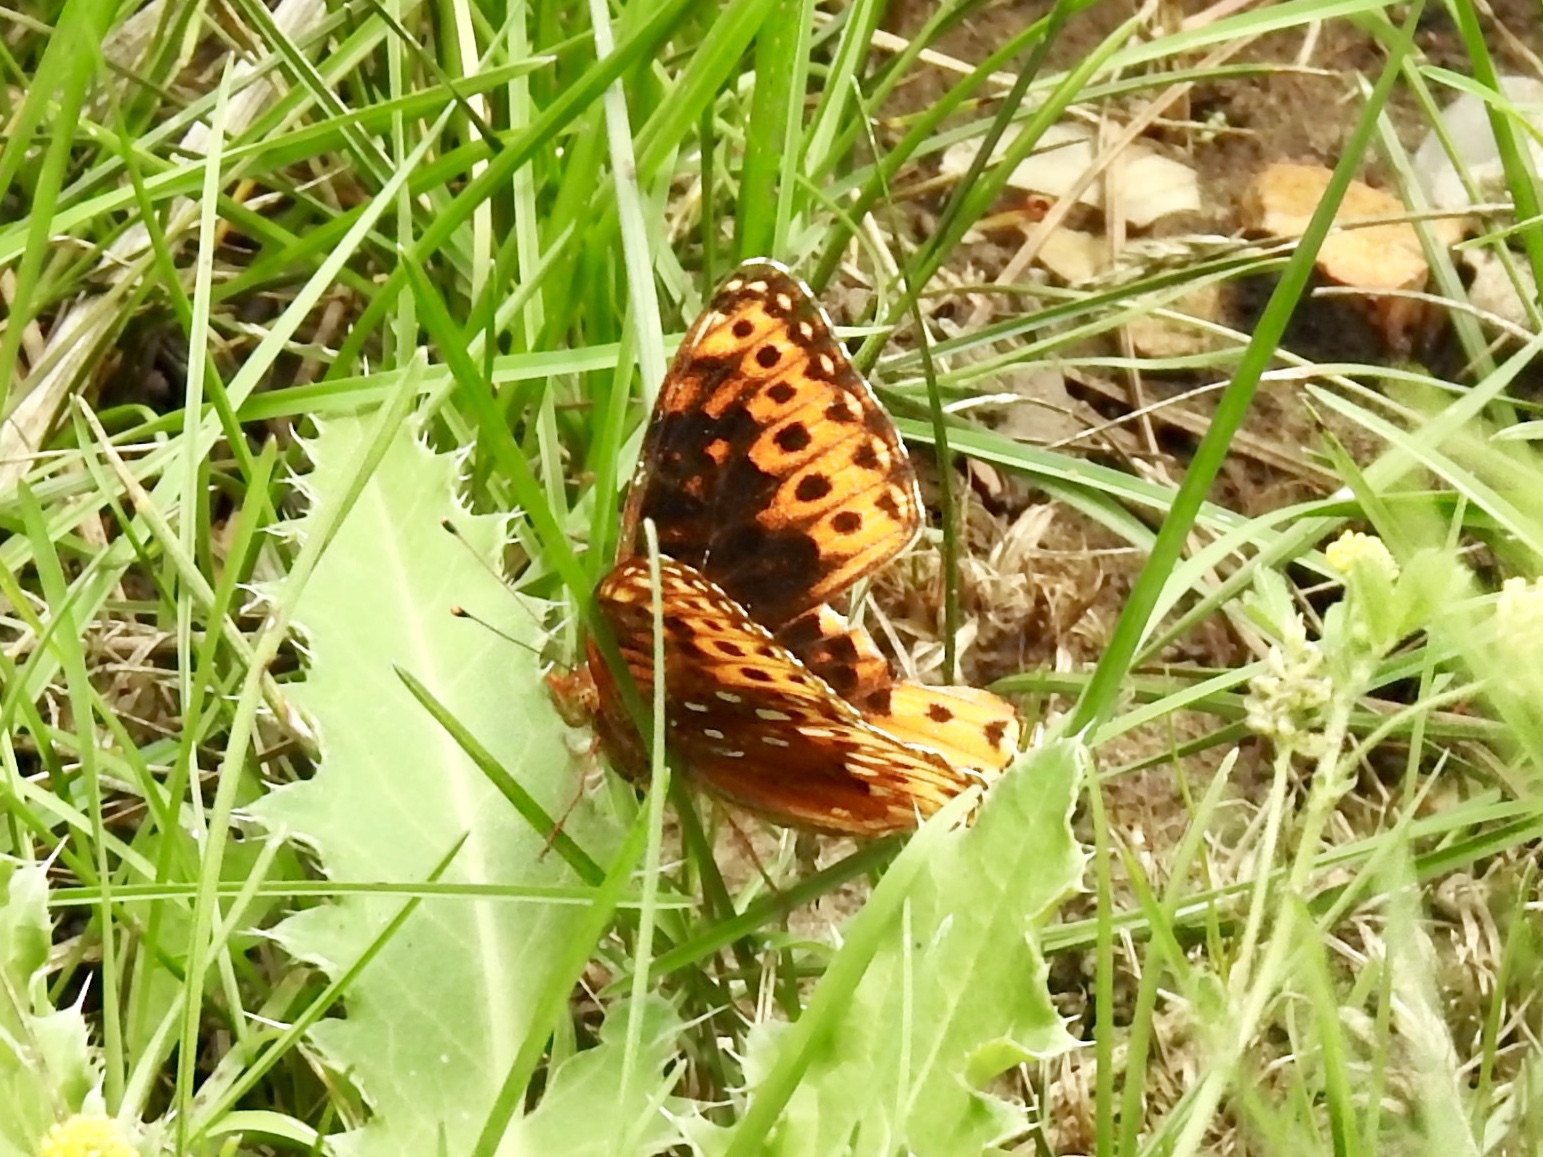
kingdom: Animalia
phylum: Arthropoda
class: Insecta
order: Lepidoptera
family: Nymphalidae
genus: Speyeria
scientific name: Speyeria atlantis
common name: Atlantis fritillary
